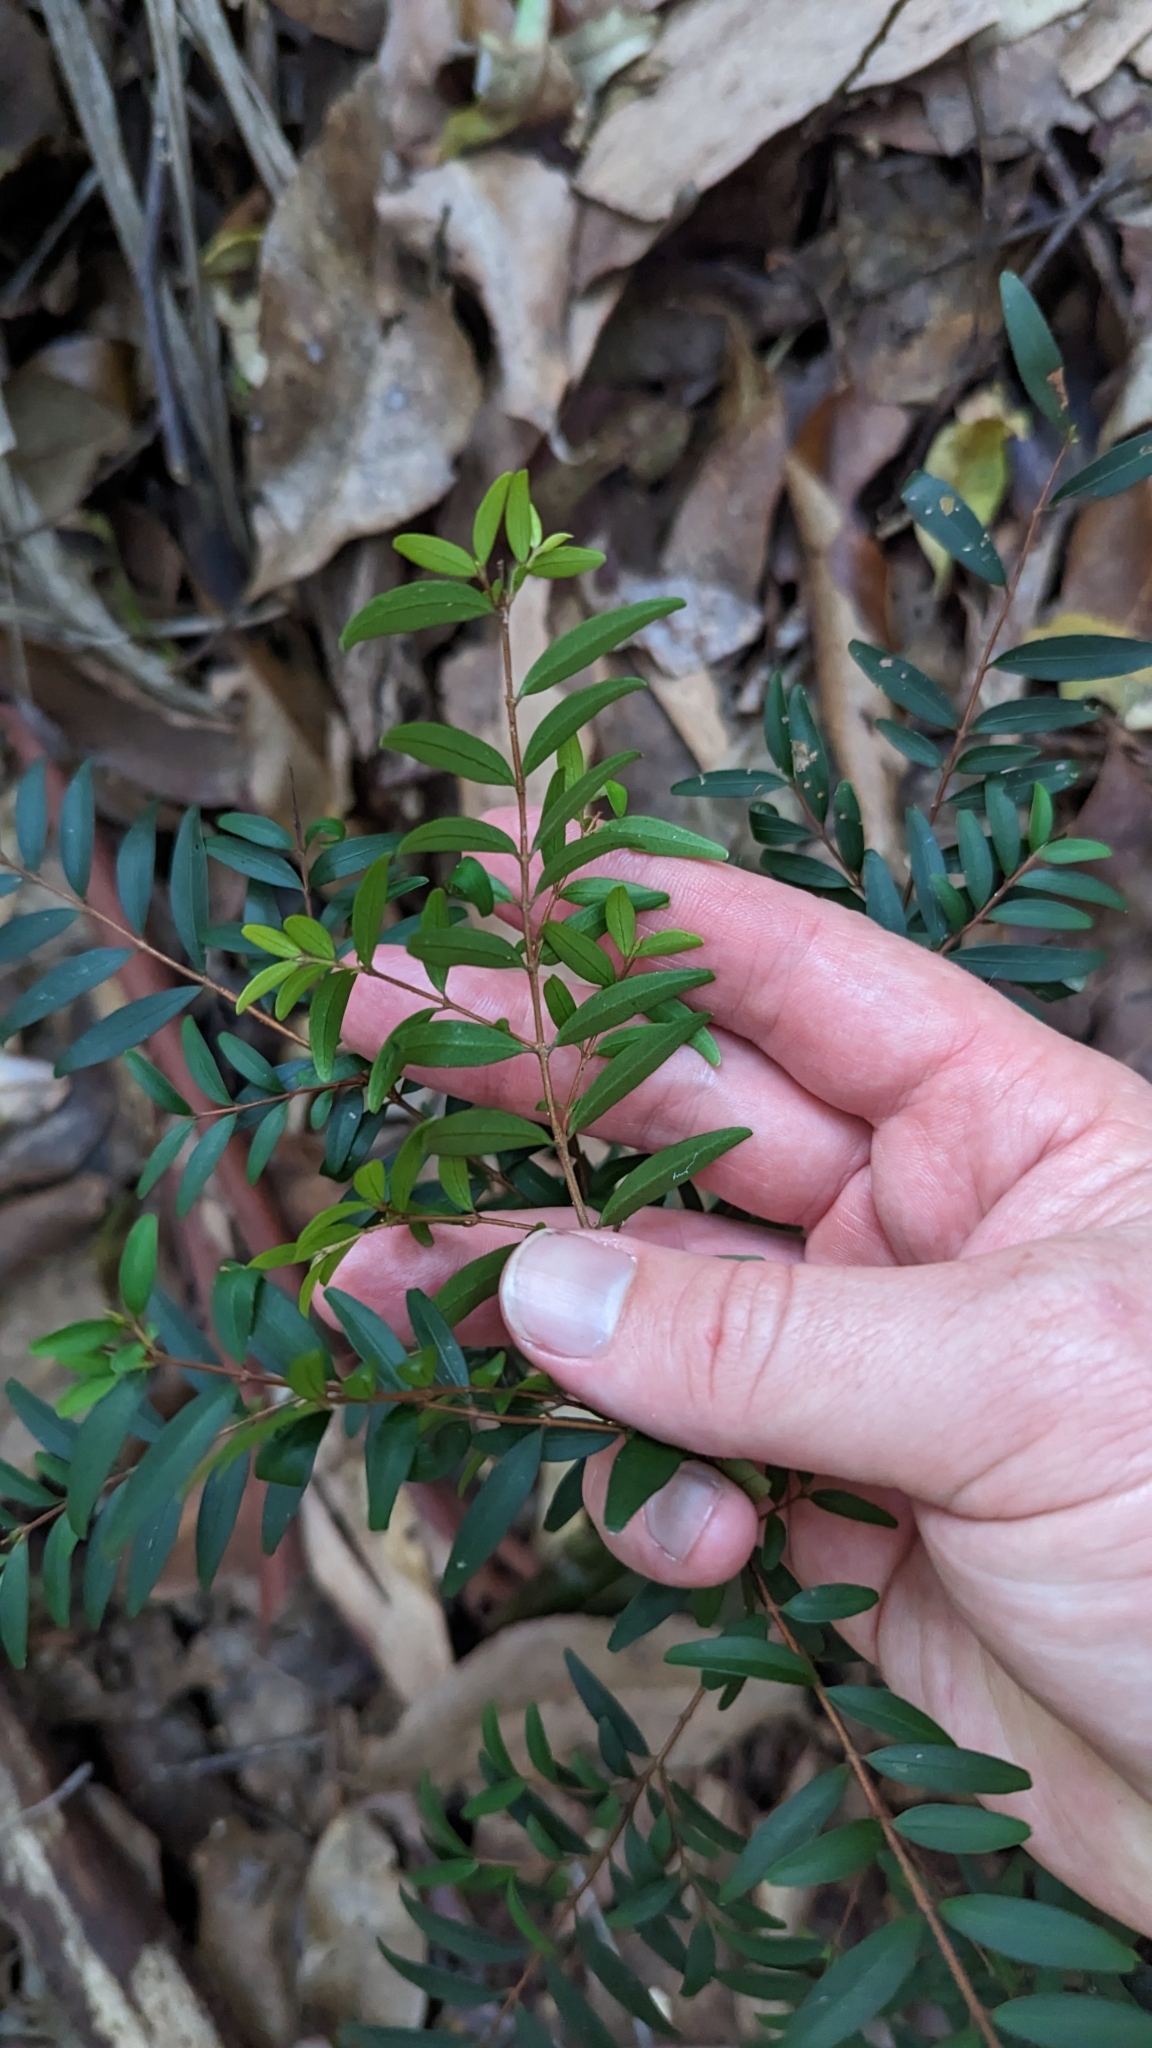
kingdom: Plantae
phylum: Tracheophyta
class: Magnoliopsida
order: Myrtales
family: Myrtaceae
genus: Pilidiostigma
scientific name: Pilidiostigma rhytisperma
